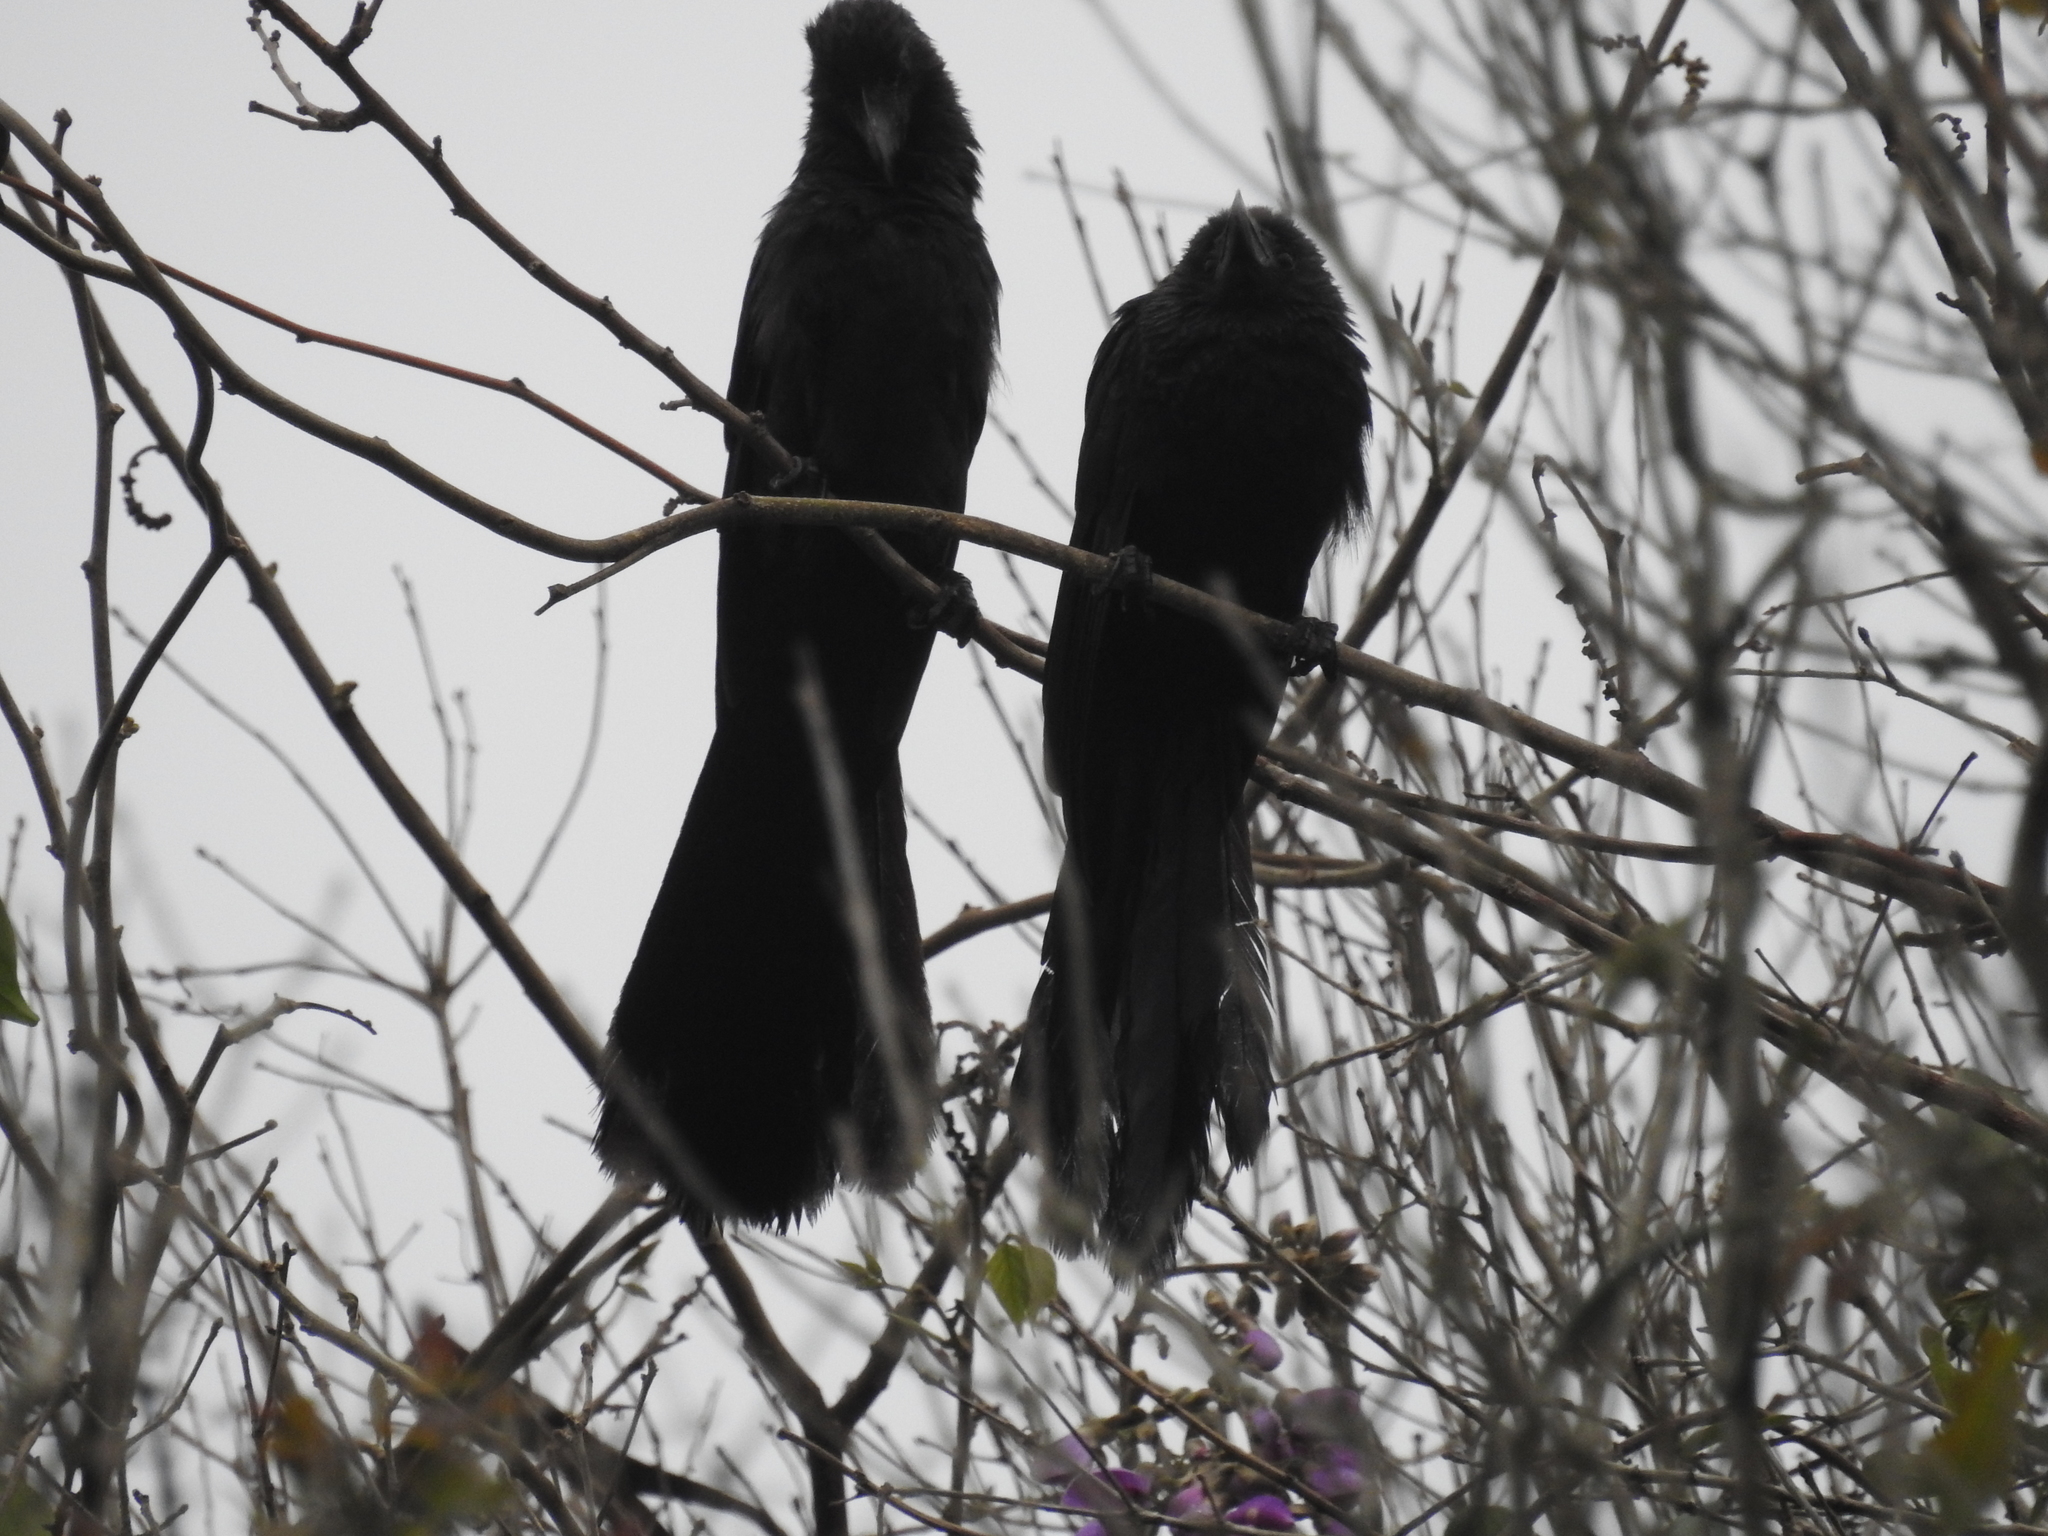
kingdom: Animalia
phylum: Chordata
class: Aves
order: Cuculiformes
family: Cuculidae
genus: Crotophaga
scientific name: Crotophaga ani
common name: Smooth-billed ani
